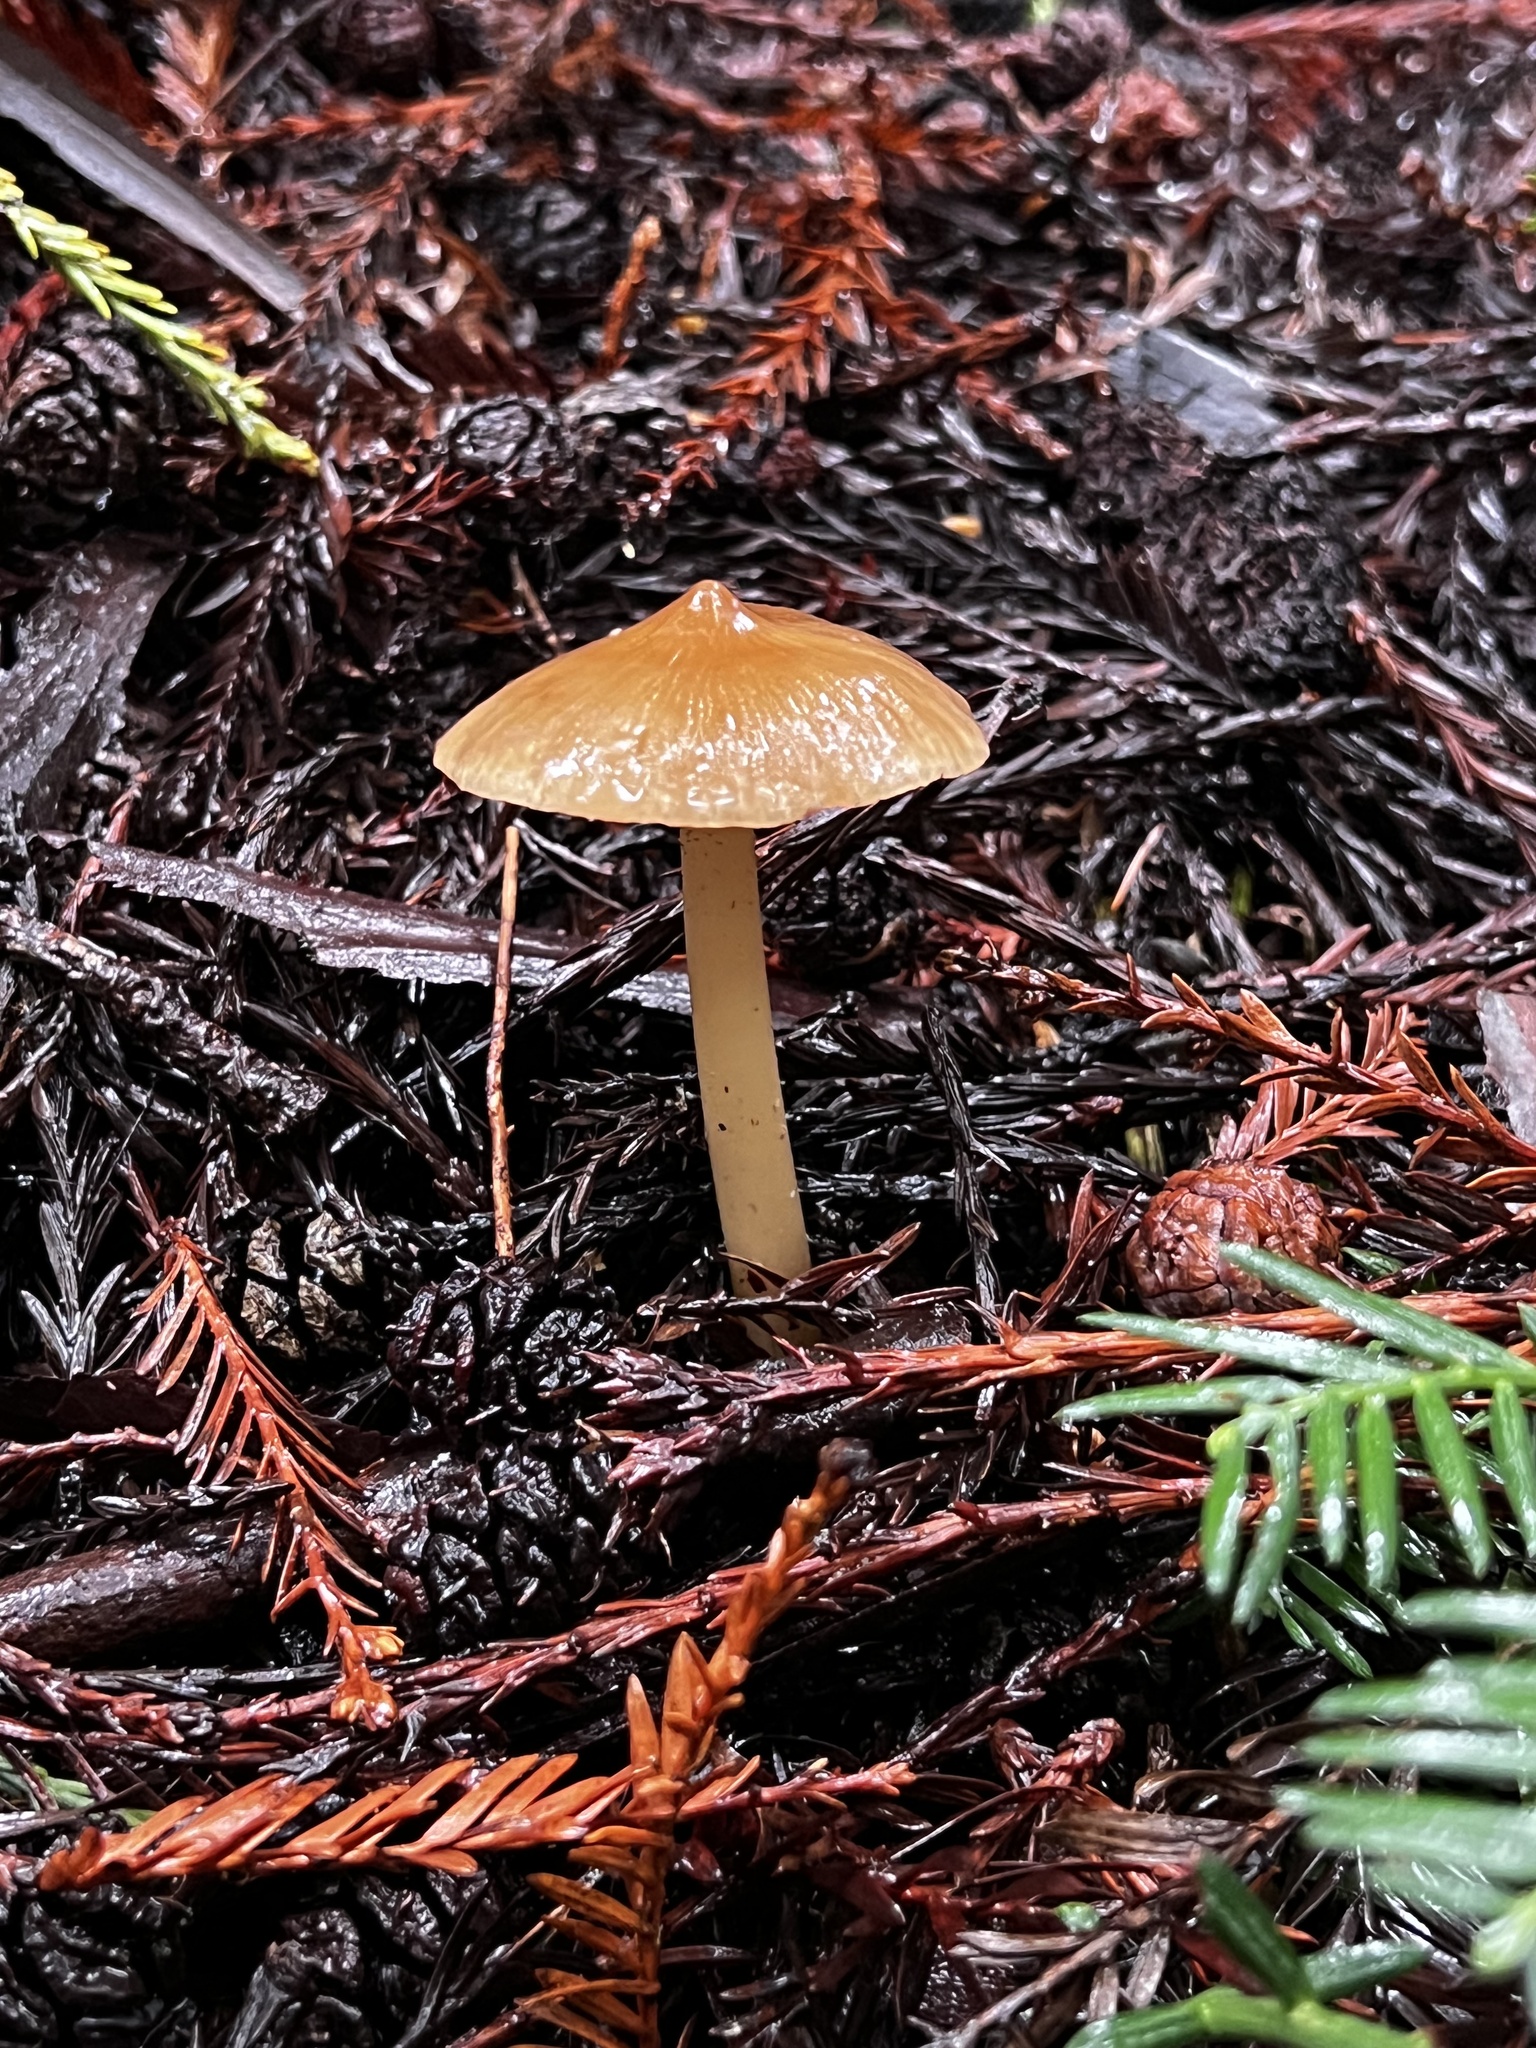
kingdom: Fungi
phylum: Basidiomycota
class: Agaricomycetes
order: Agaricales
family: Tricholomataceae
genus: Caulorhiza
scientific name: Caulorhiza umbonata
